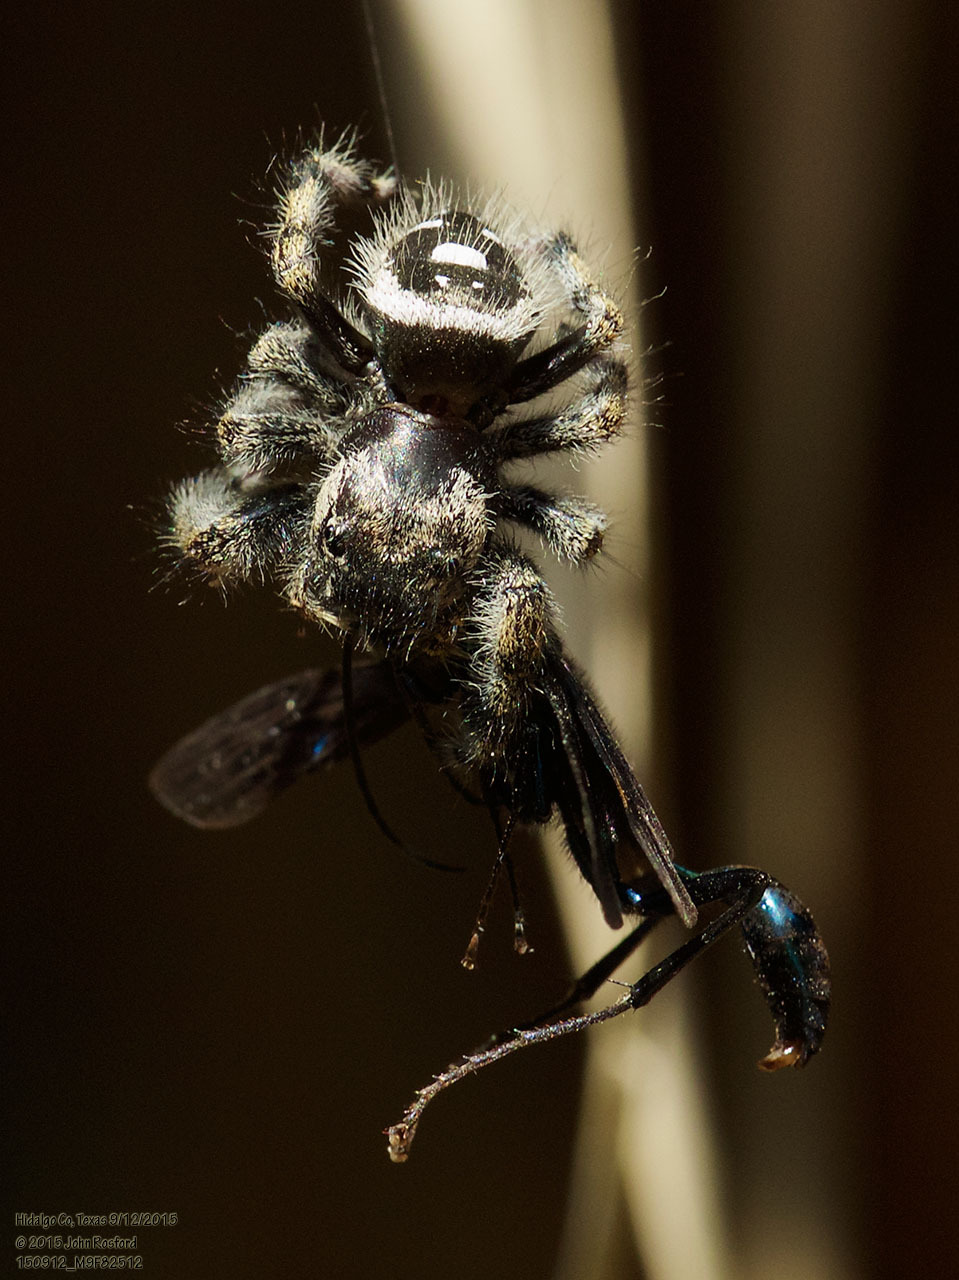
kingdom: Animalia
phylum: Arthropoda
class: Arachnida
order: Araneae
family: Salticidae
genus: Phidippus
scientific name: Phidippus audax
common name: Bold jumper
